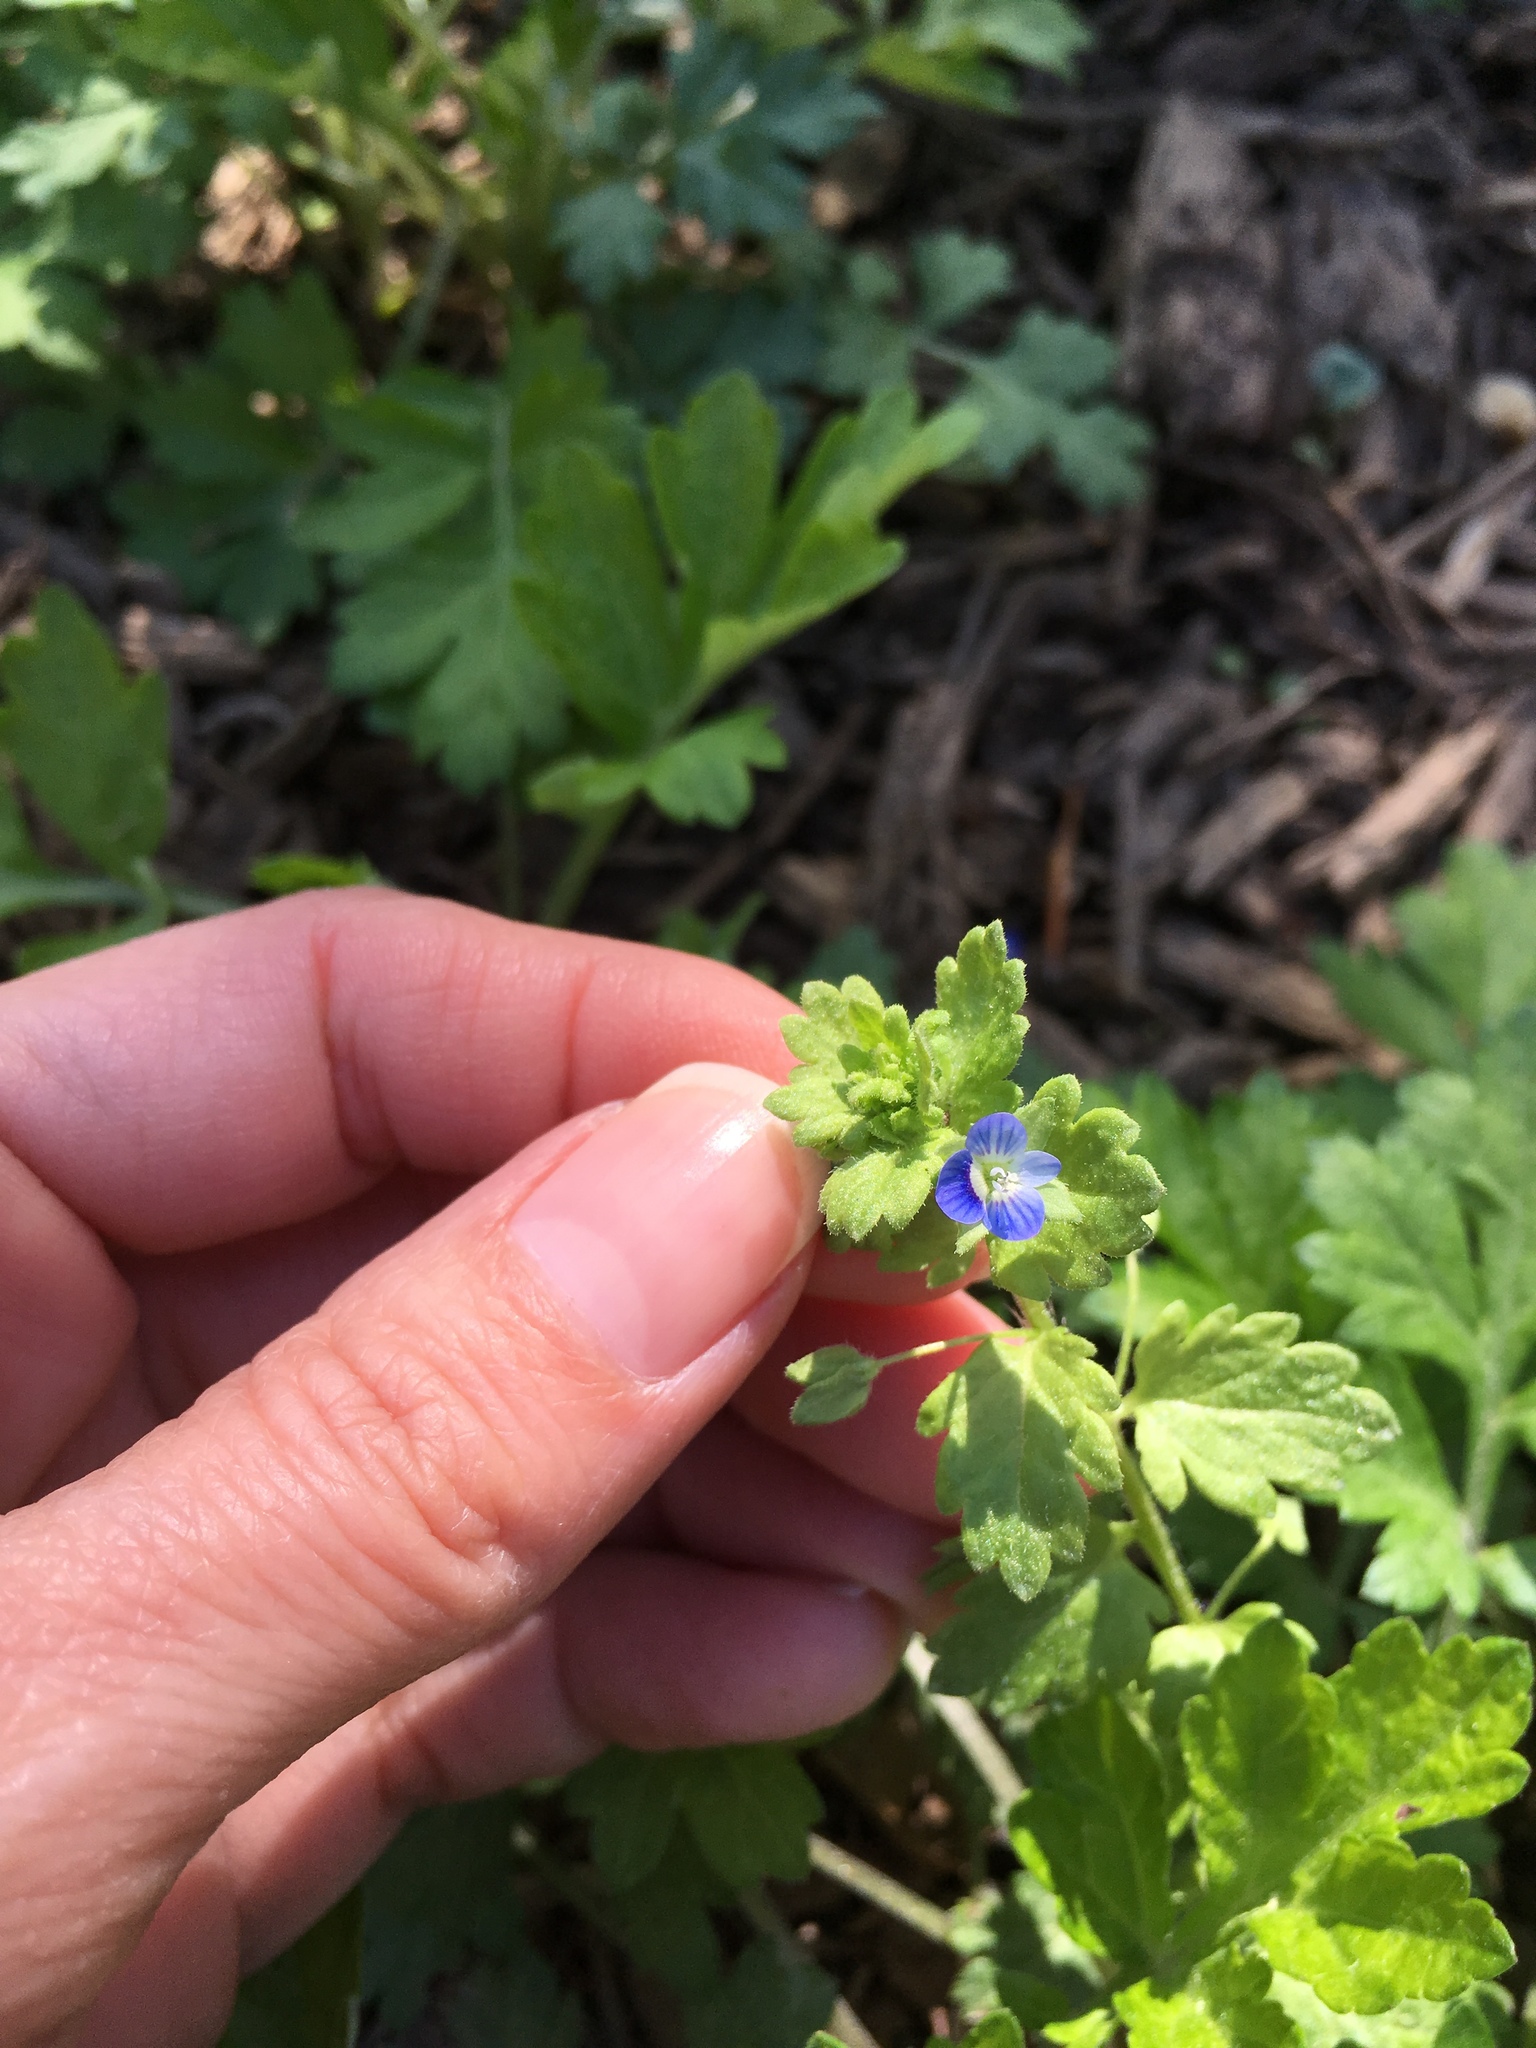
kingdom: Plantae
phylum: Tracheophyta
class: Magnoliopsida
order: Lamiales
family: Plantaginaceae
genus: Veronica
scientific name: Veronica persica
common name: Common field-speedwell
